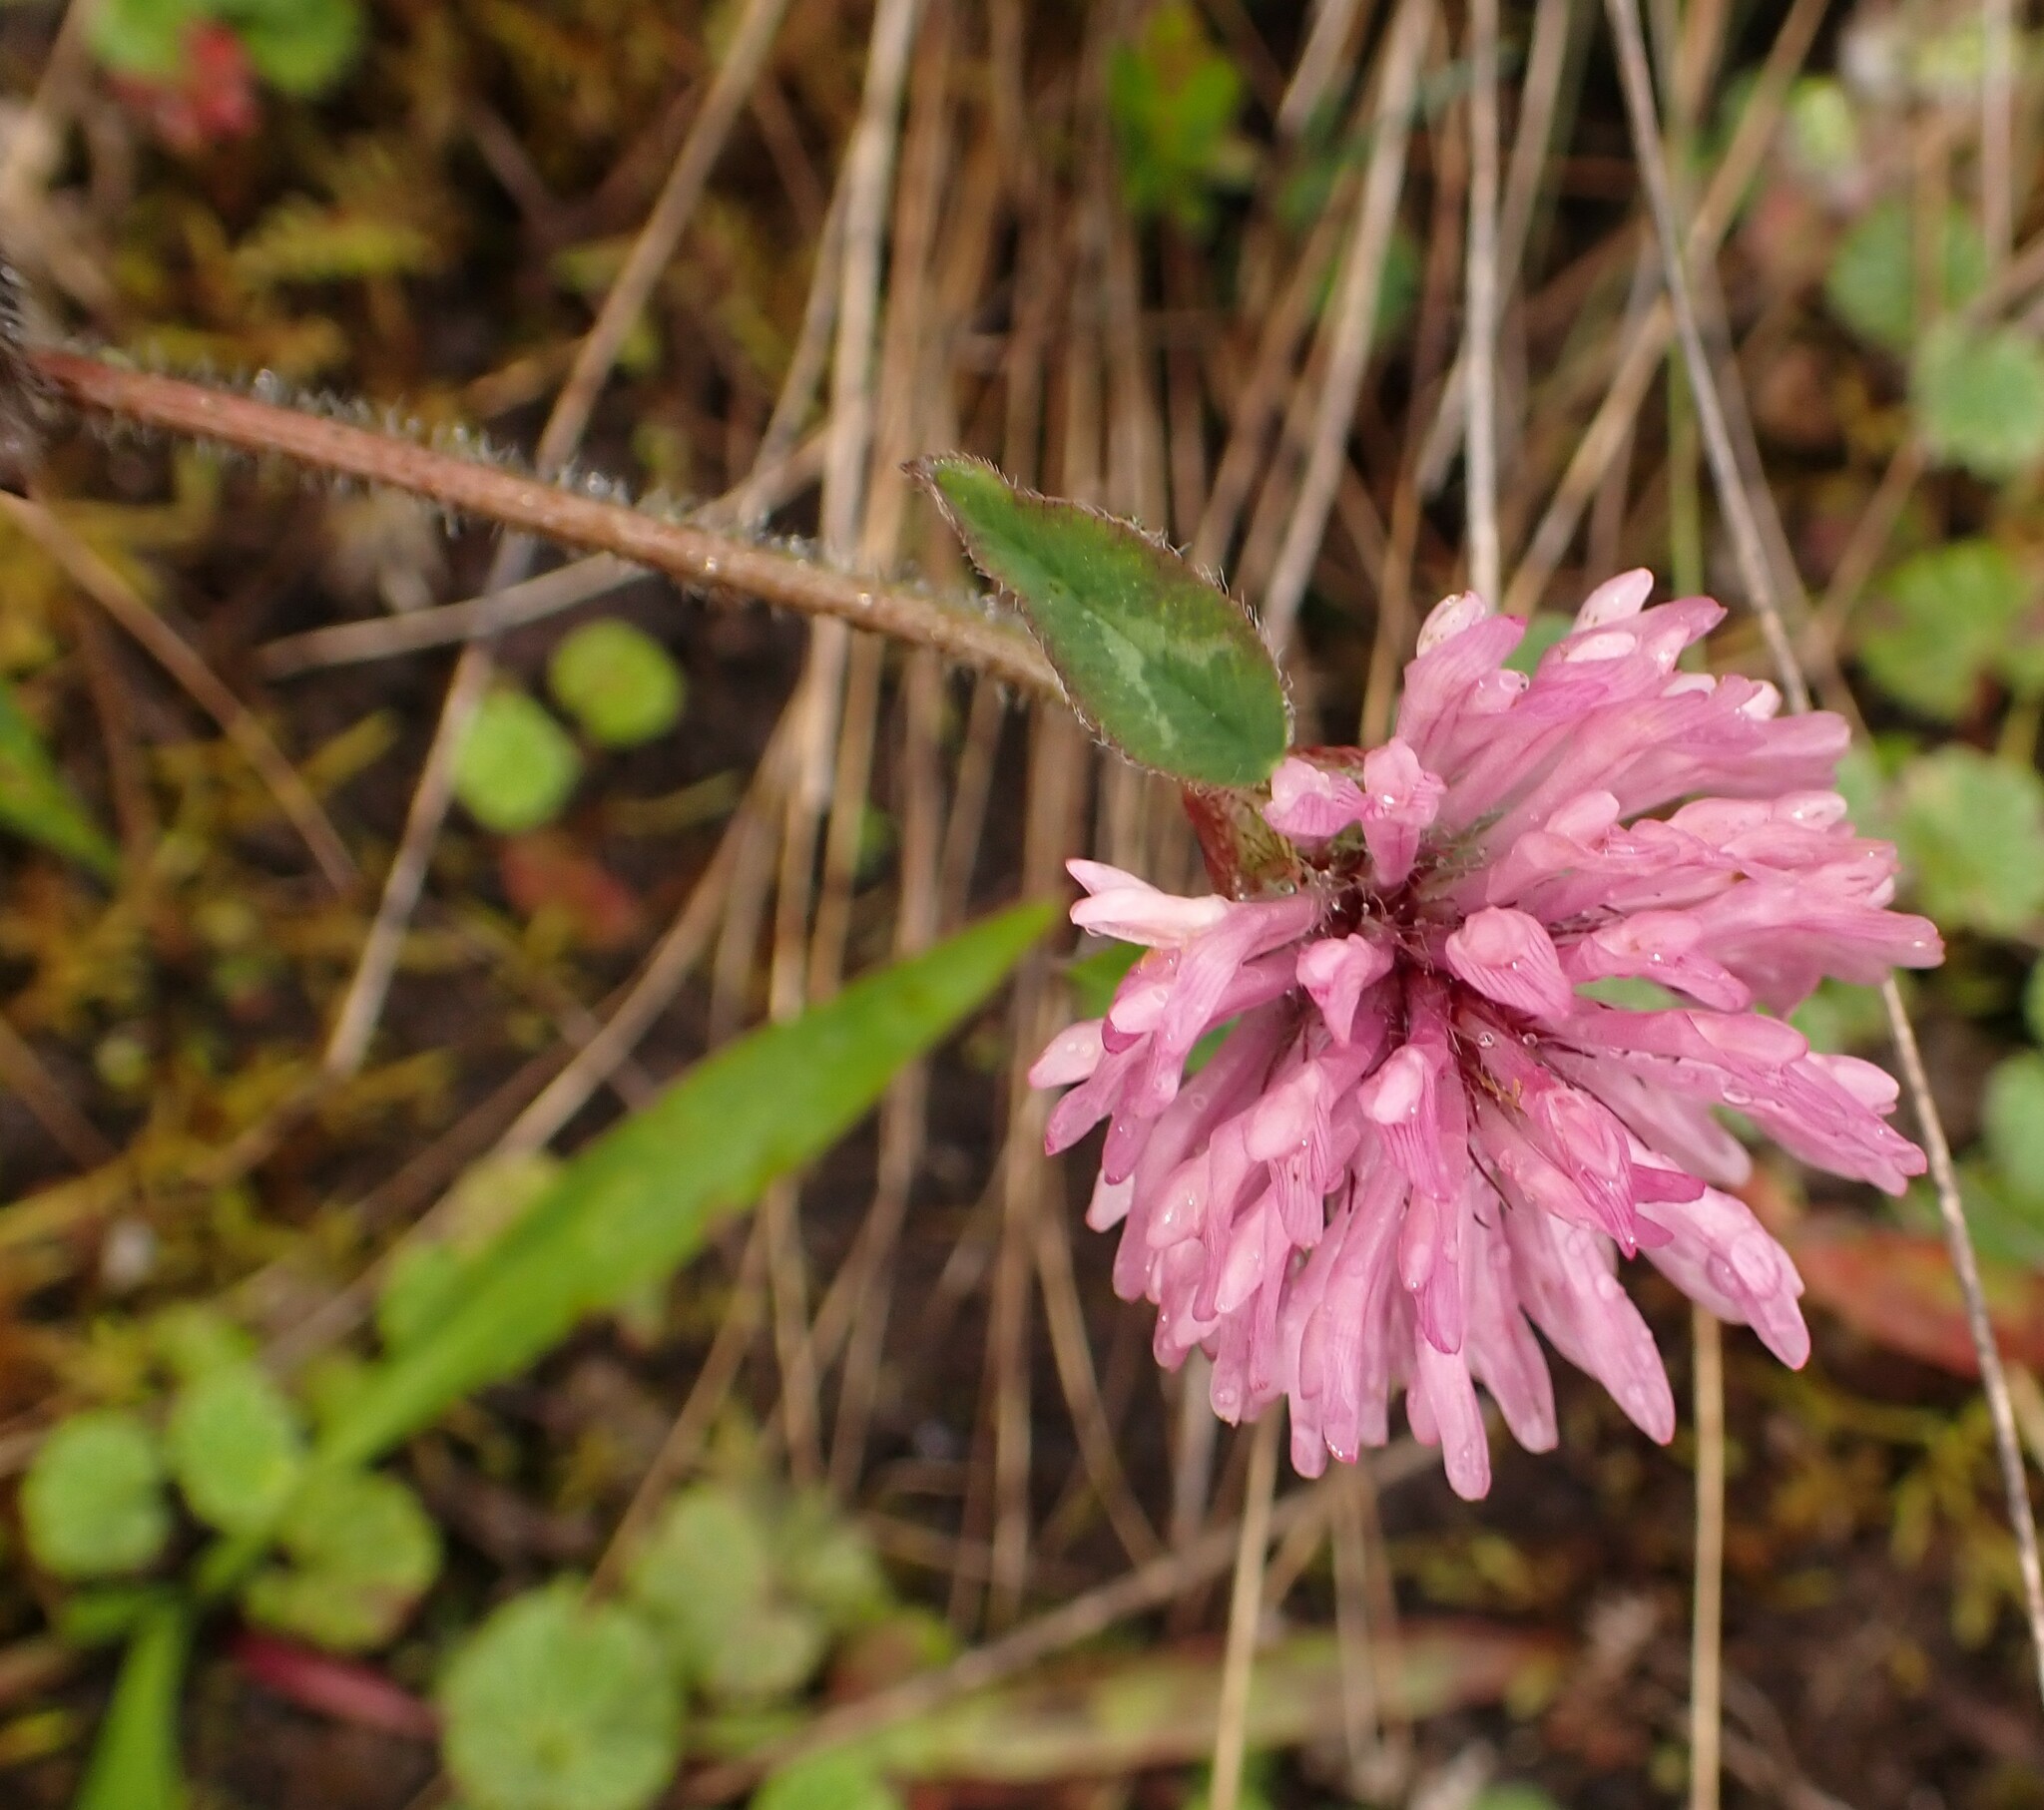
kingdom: Plantae
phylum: Tracheophyta
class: Magnoliopsida
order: Fabales
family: Fabaceae
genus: Trifolium
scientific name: Trifolium pratense
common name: Red clover
